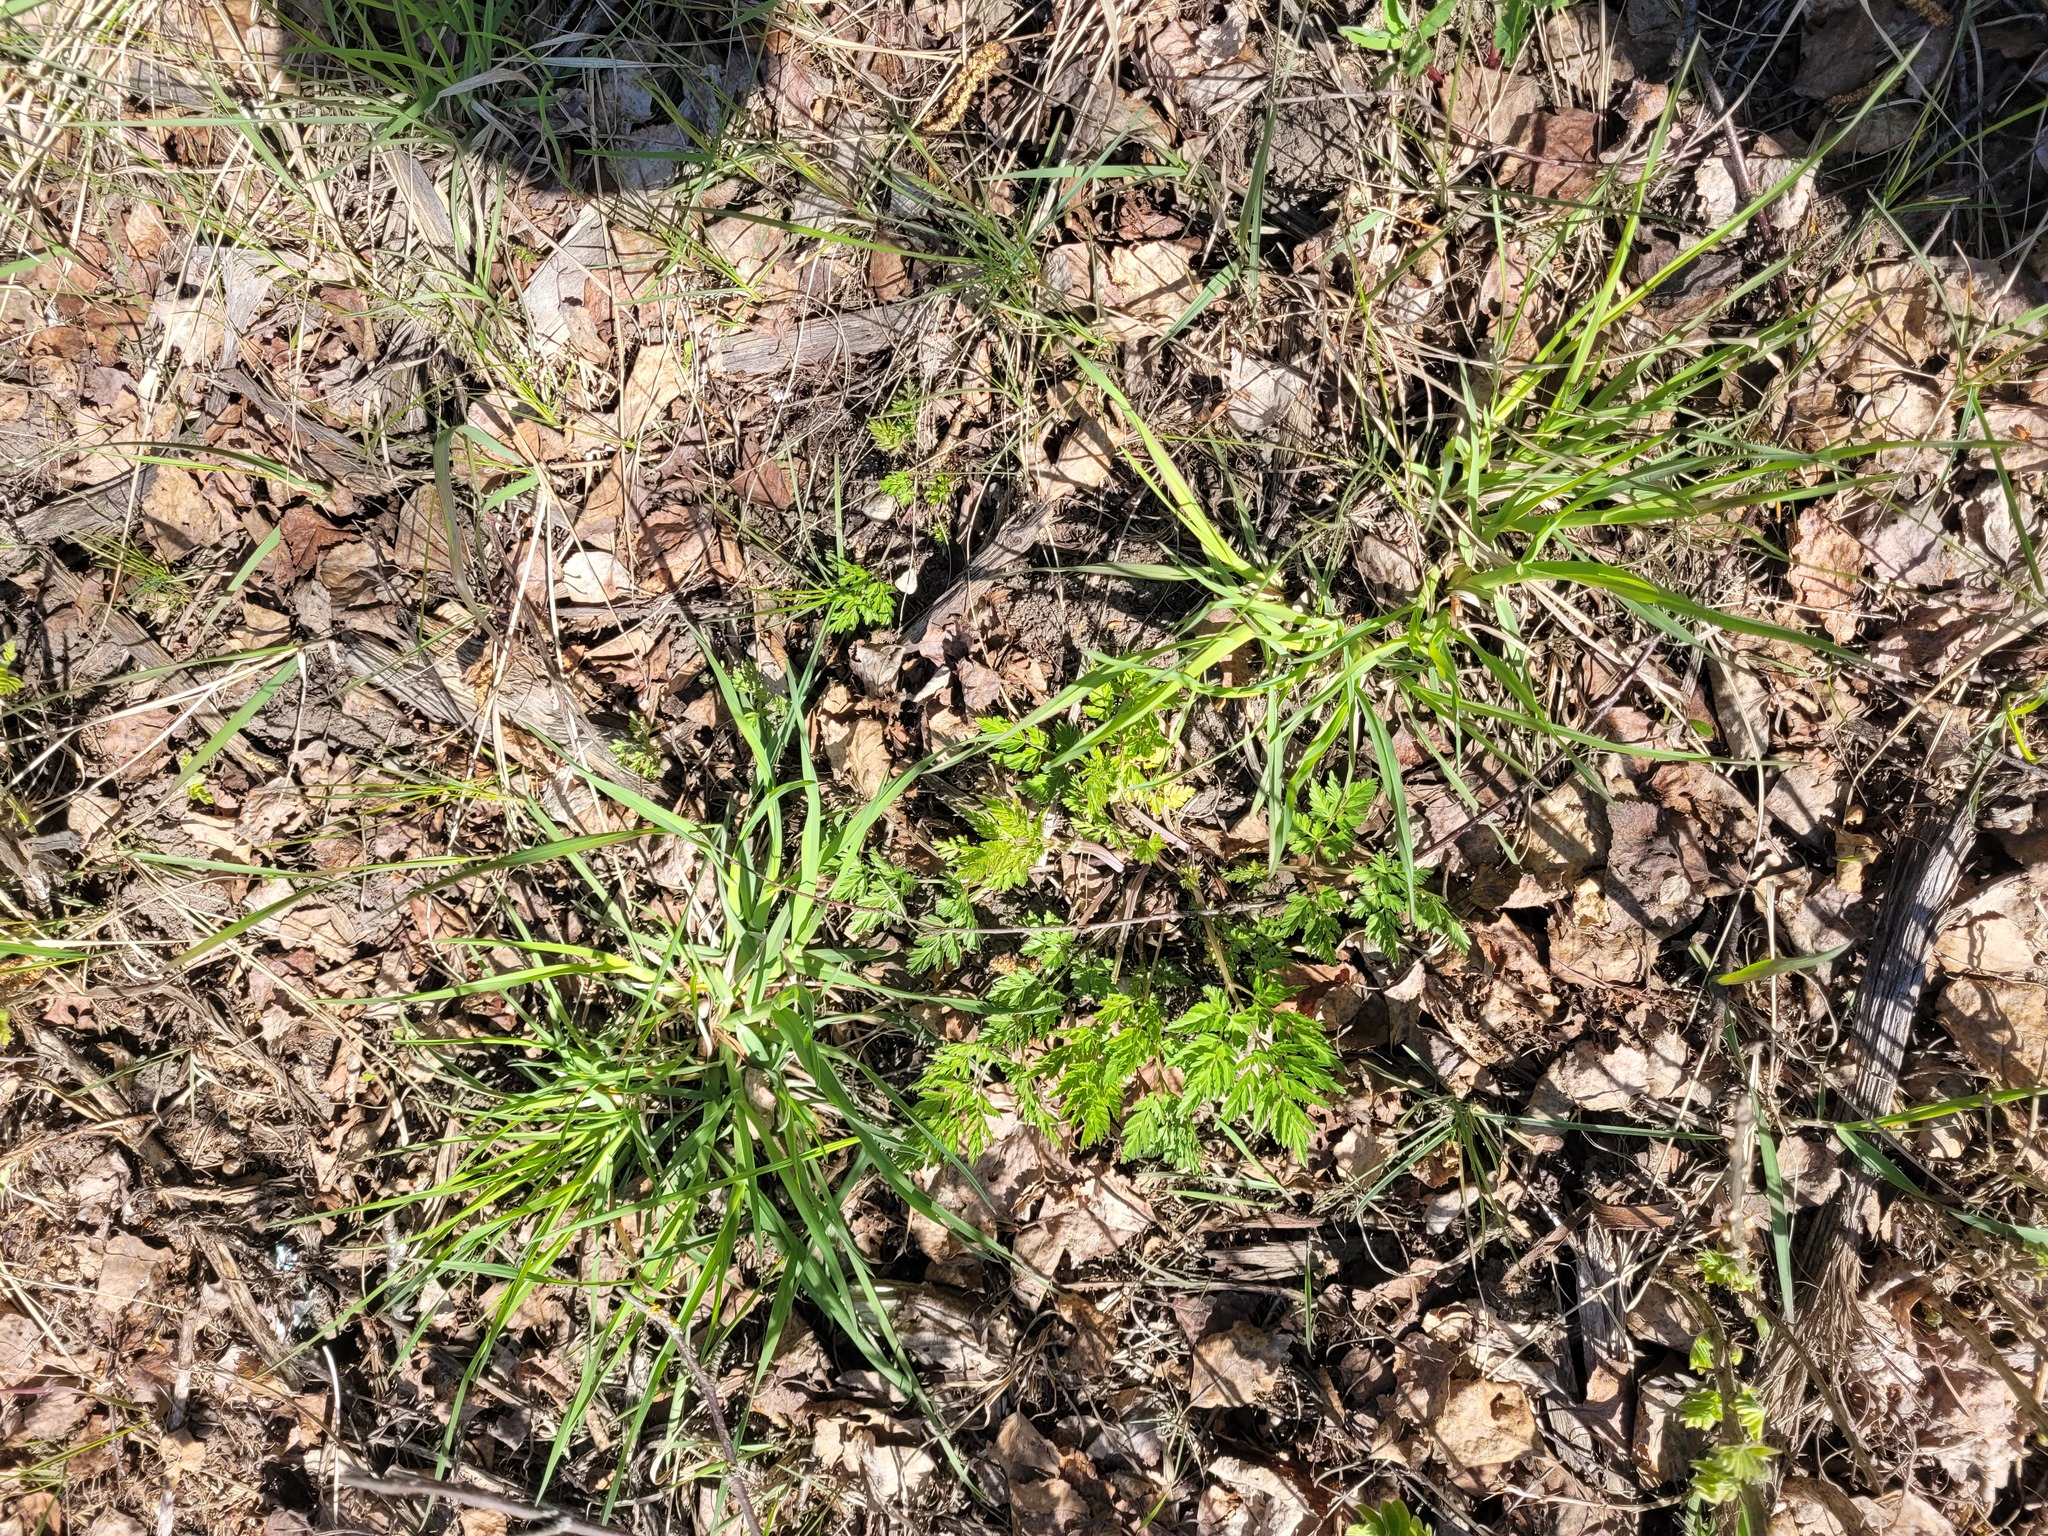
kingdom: Plantae
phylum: Tracheophyta
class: Magnoliopsida
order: Apiales
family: Apiaceae
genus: Anthriscus
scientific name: Anthriscus sylvestris
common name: Cow parsley
